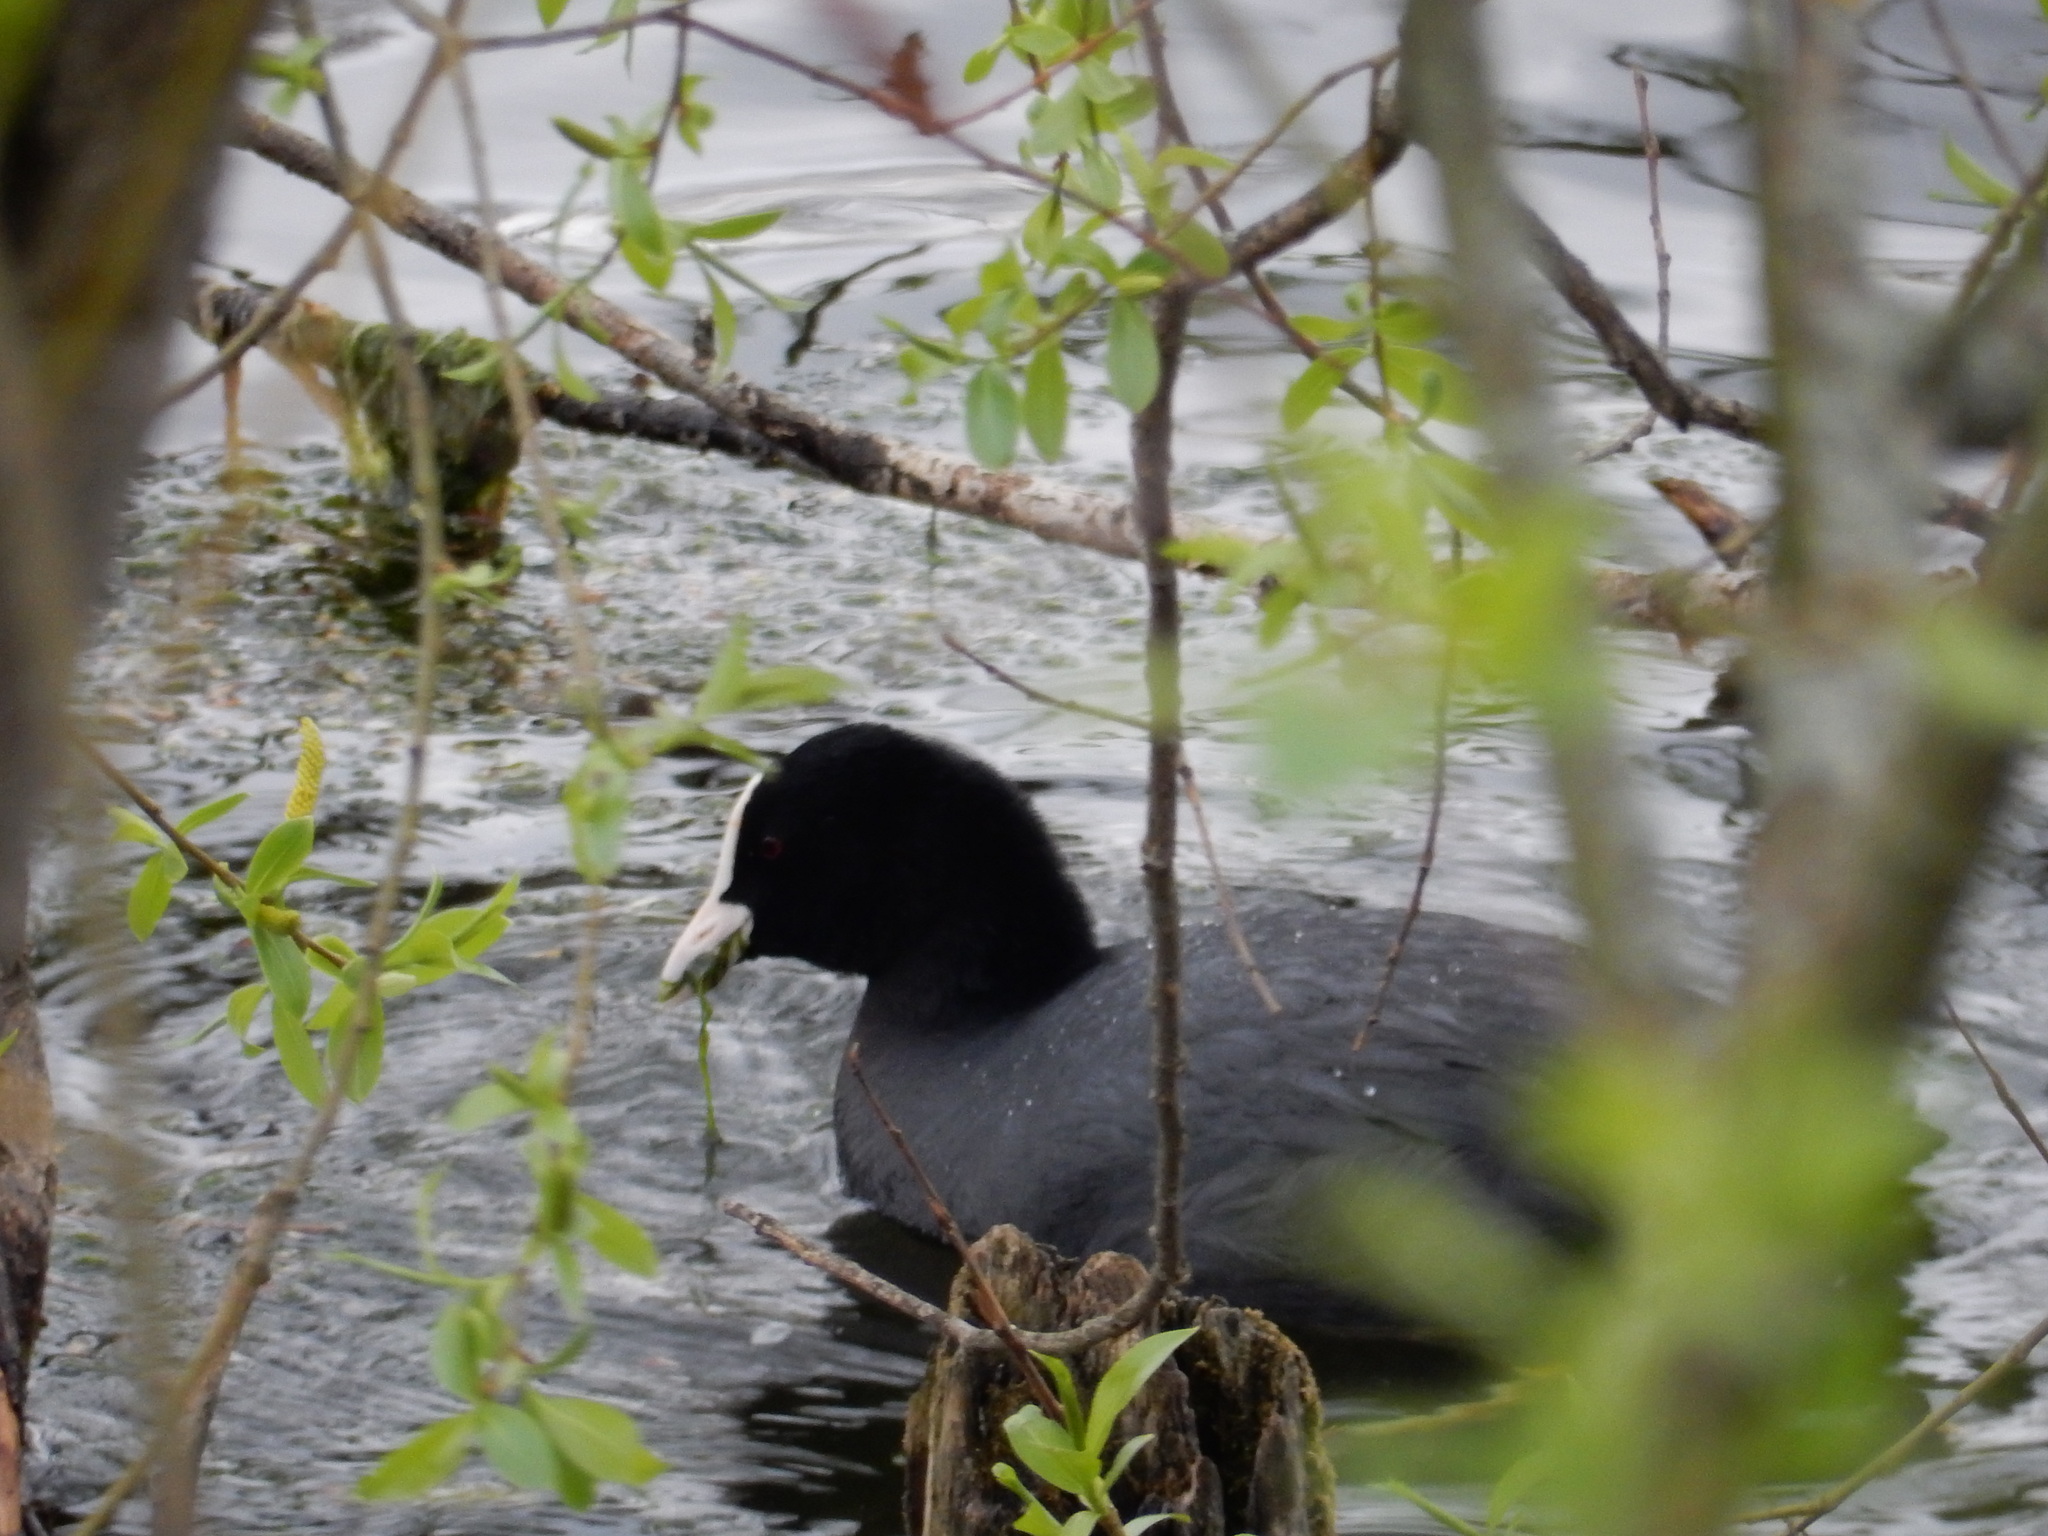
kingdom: Animalia
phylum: Chordata
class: Aves
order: Gruiformes
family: Rallidae
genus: Fulica
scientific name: Fulica atra
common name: Eurasian coot
